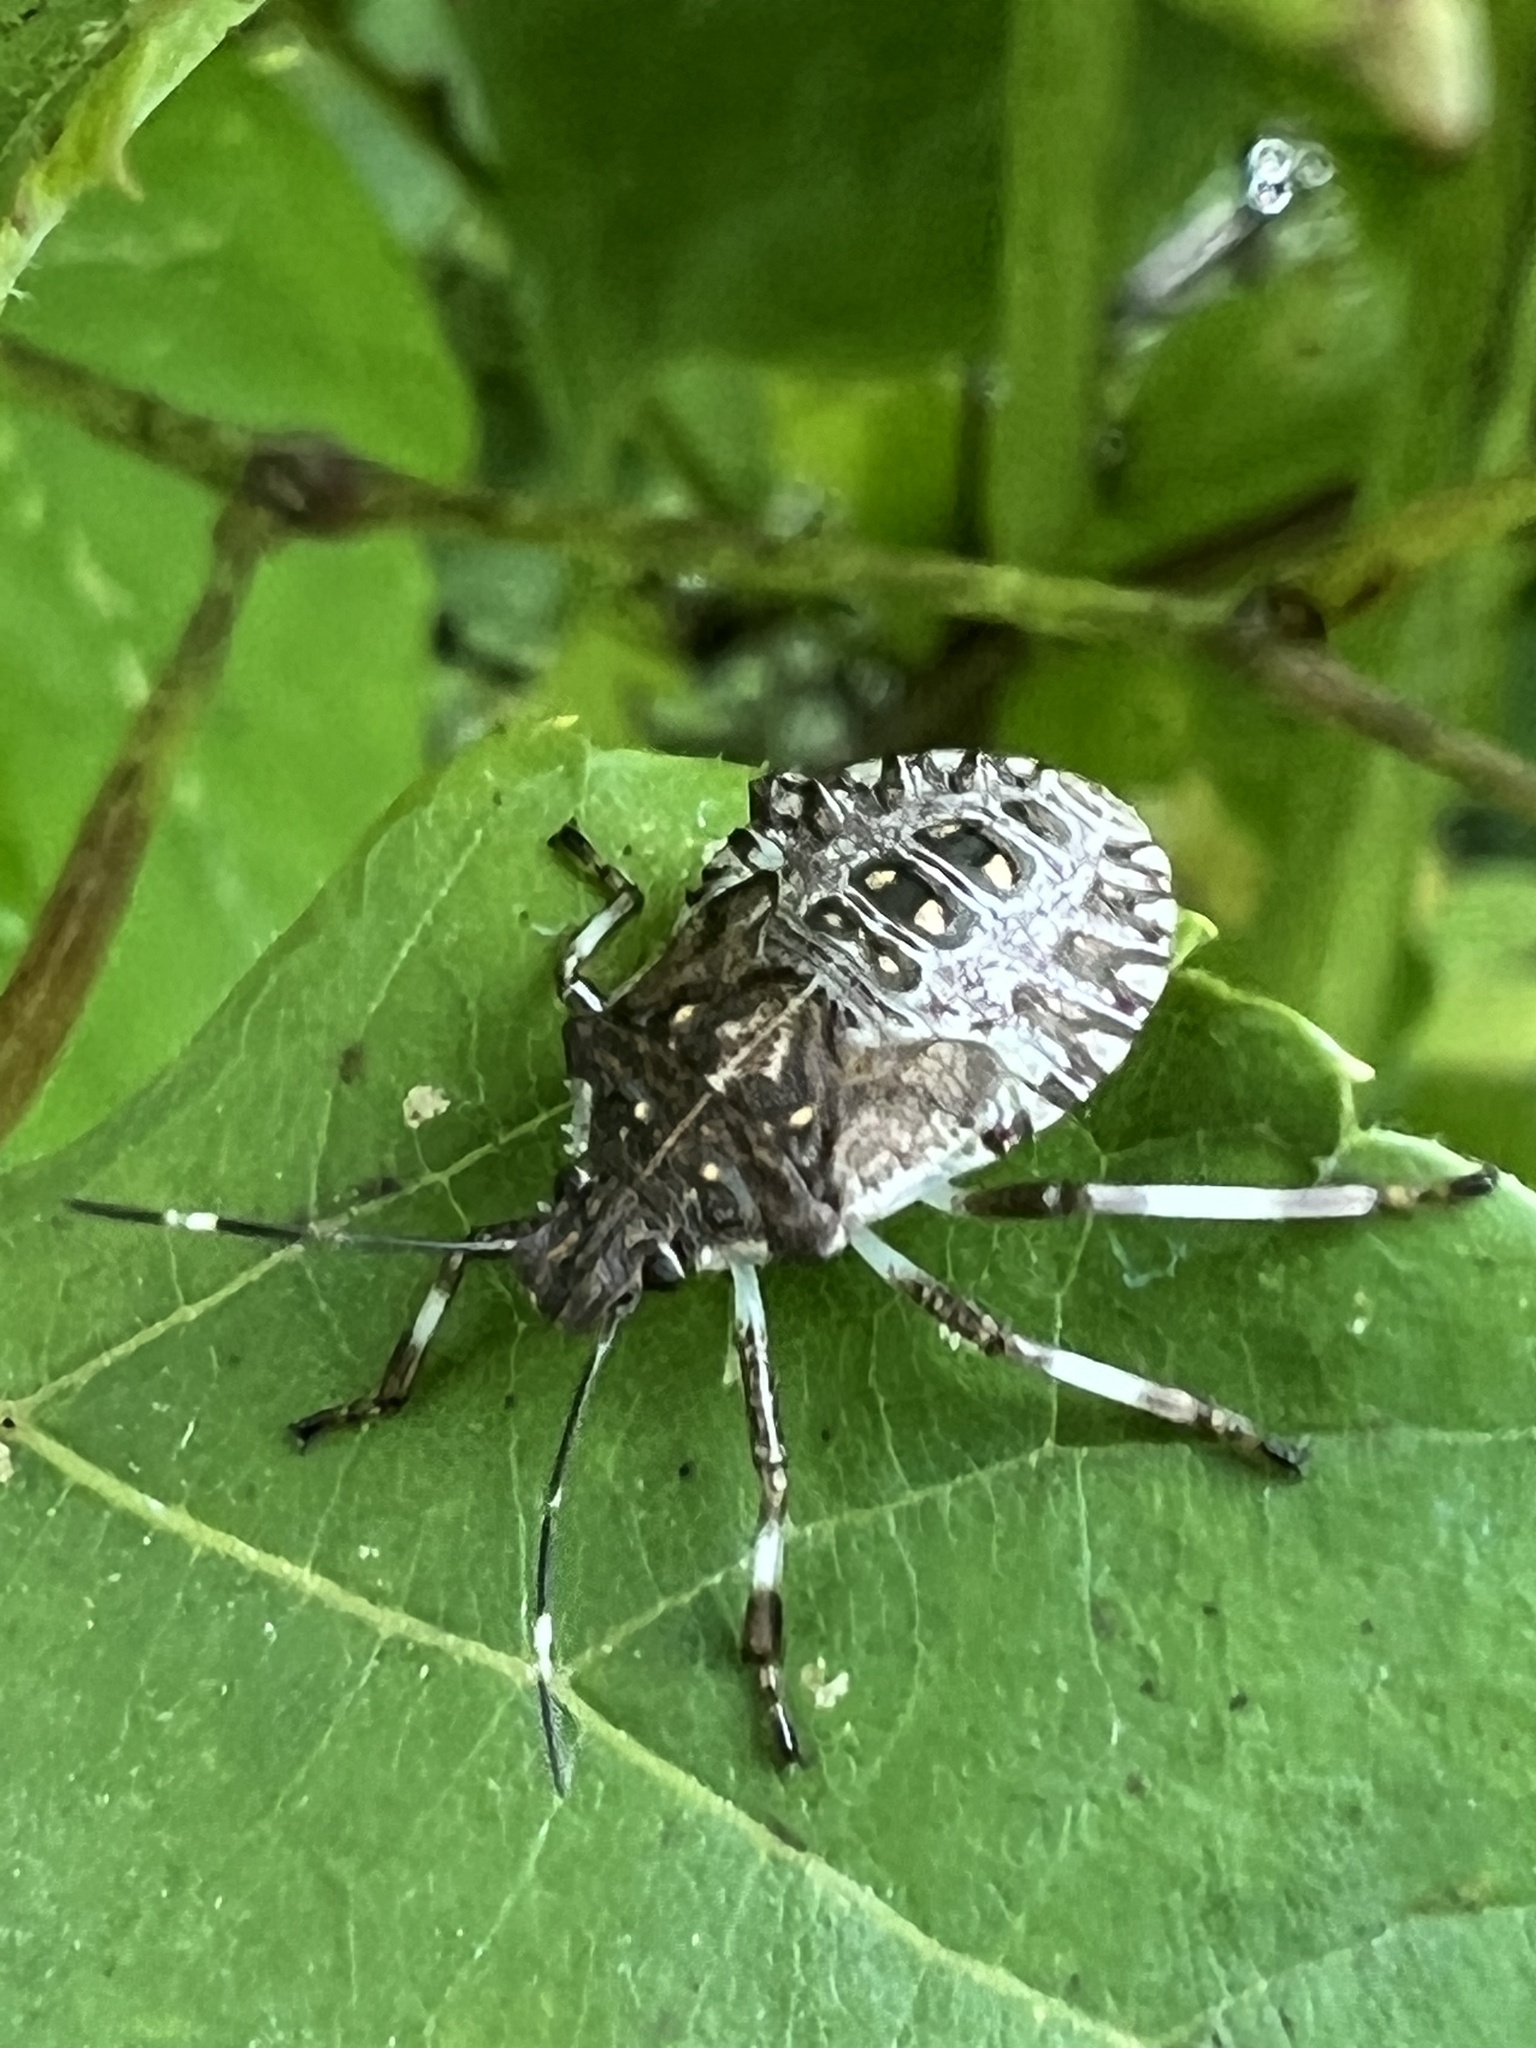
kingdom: Animalia
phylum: Arthropoda
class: Insecta
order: Hemiptera
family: Pentatomidae
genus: Halyomorpha
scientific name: Halyomorpha halys
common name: Brown marmorated stink bug
